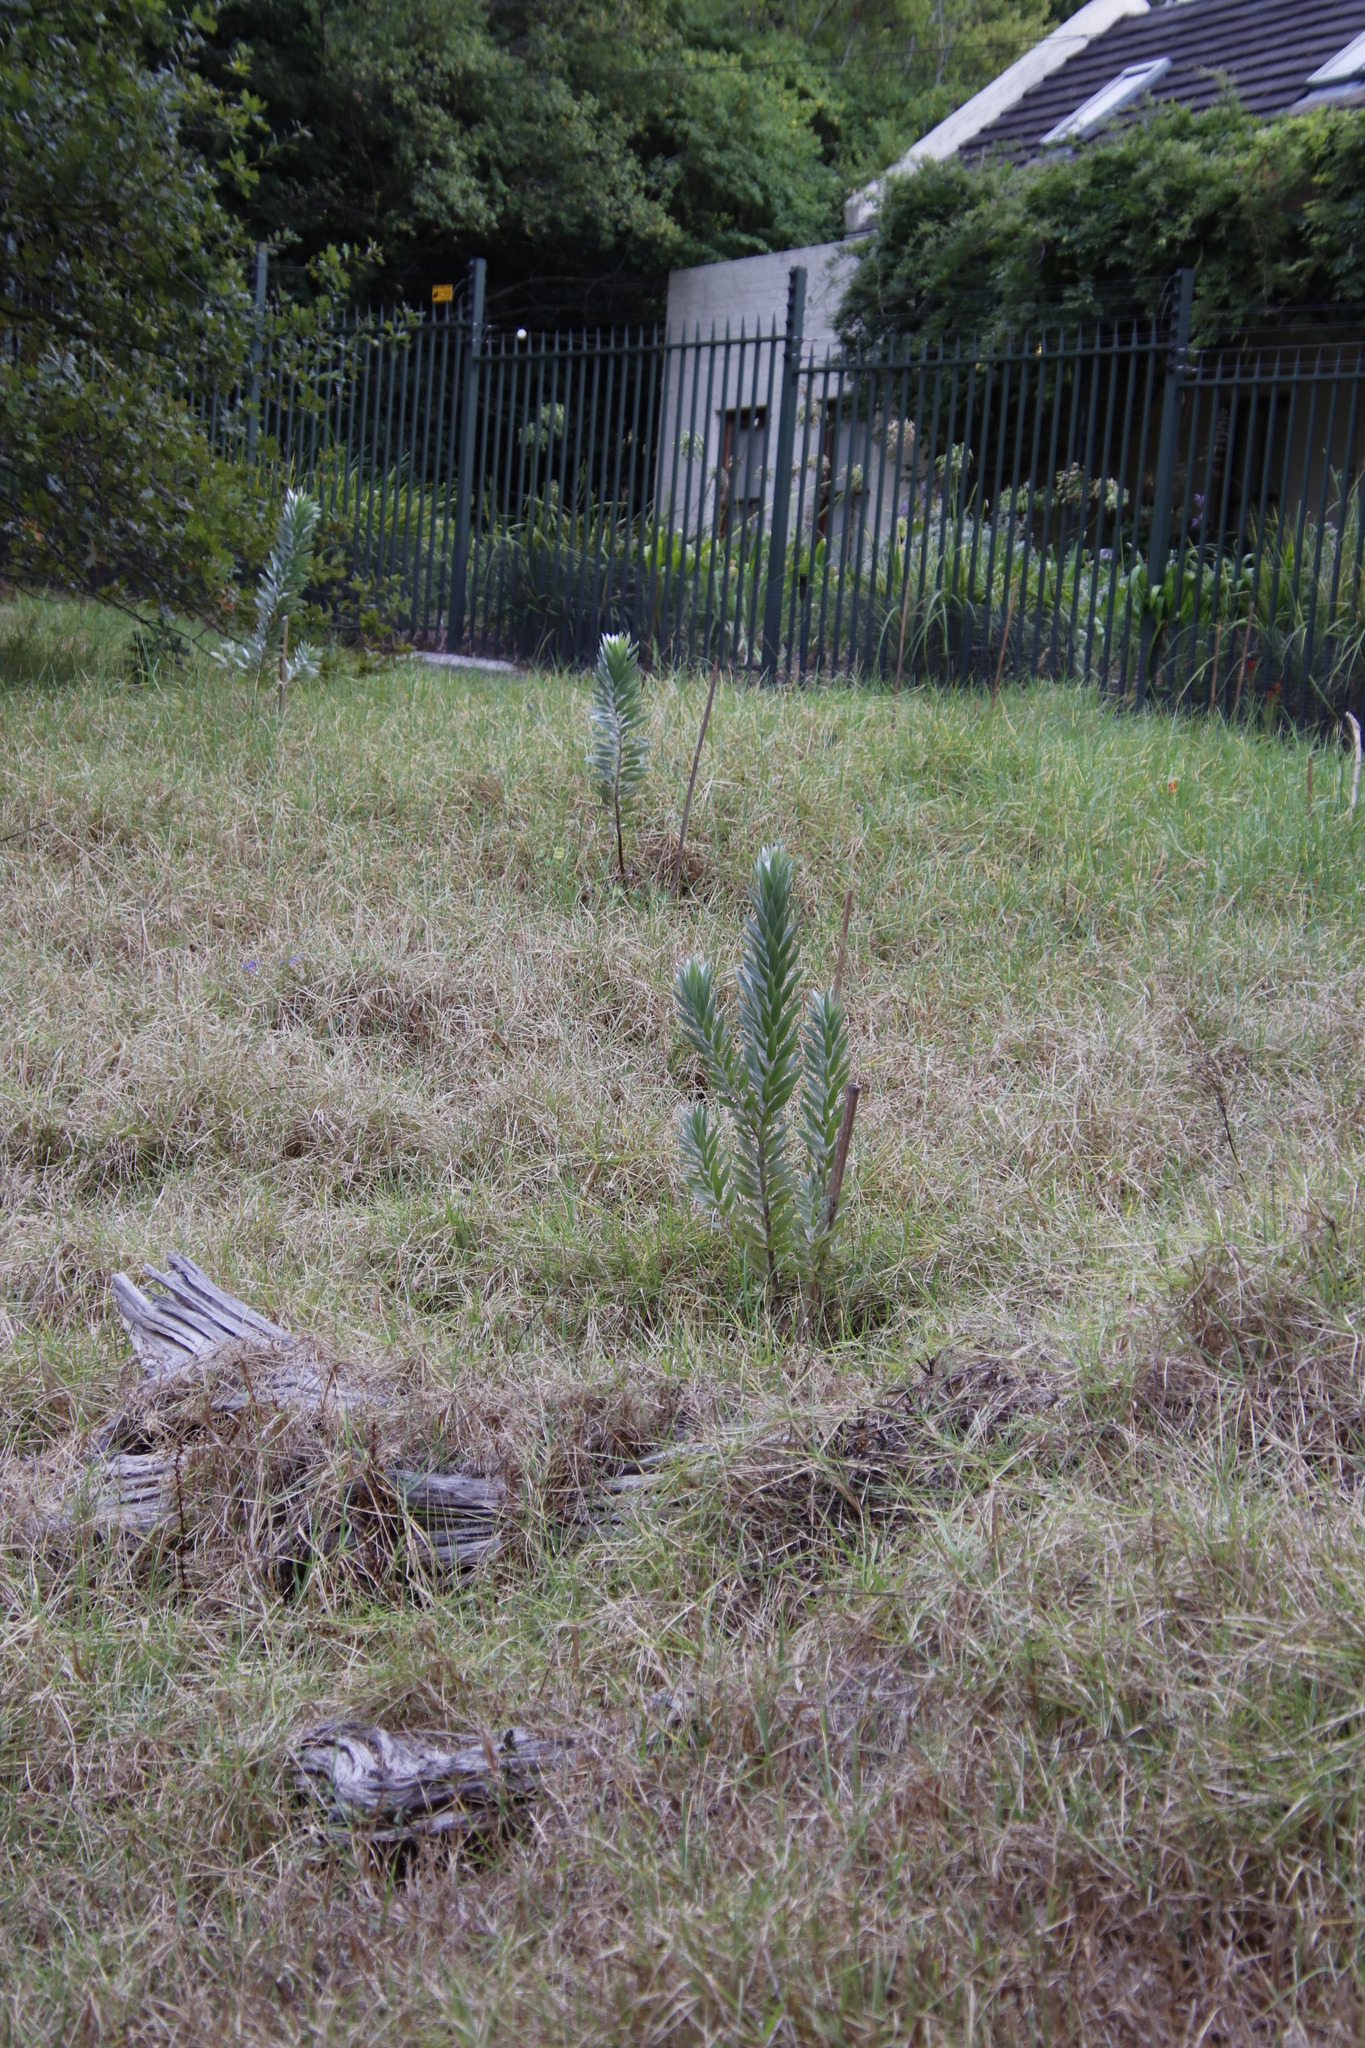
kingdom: Plantae
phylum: Tracheophyta
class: Magnoliopsida
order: Proteales
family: Proteaceae
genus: Leucadendron
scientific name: Leucadendron argenteum
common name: Cape silver tree
